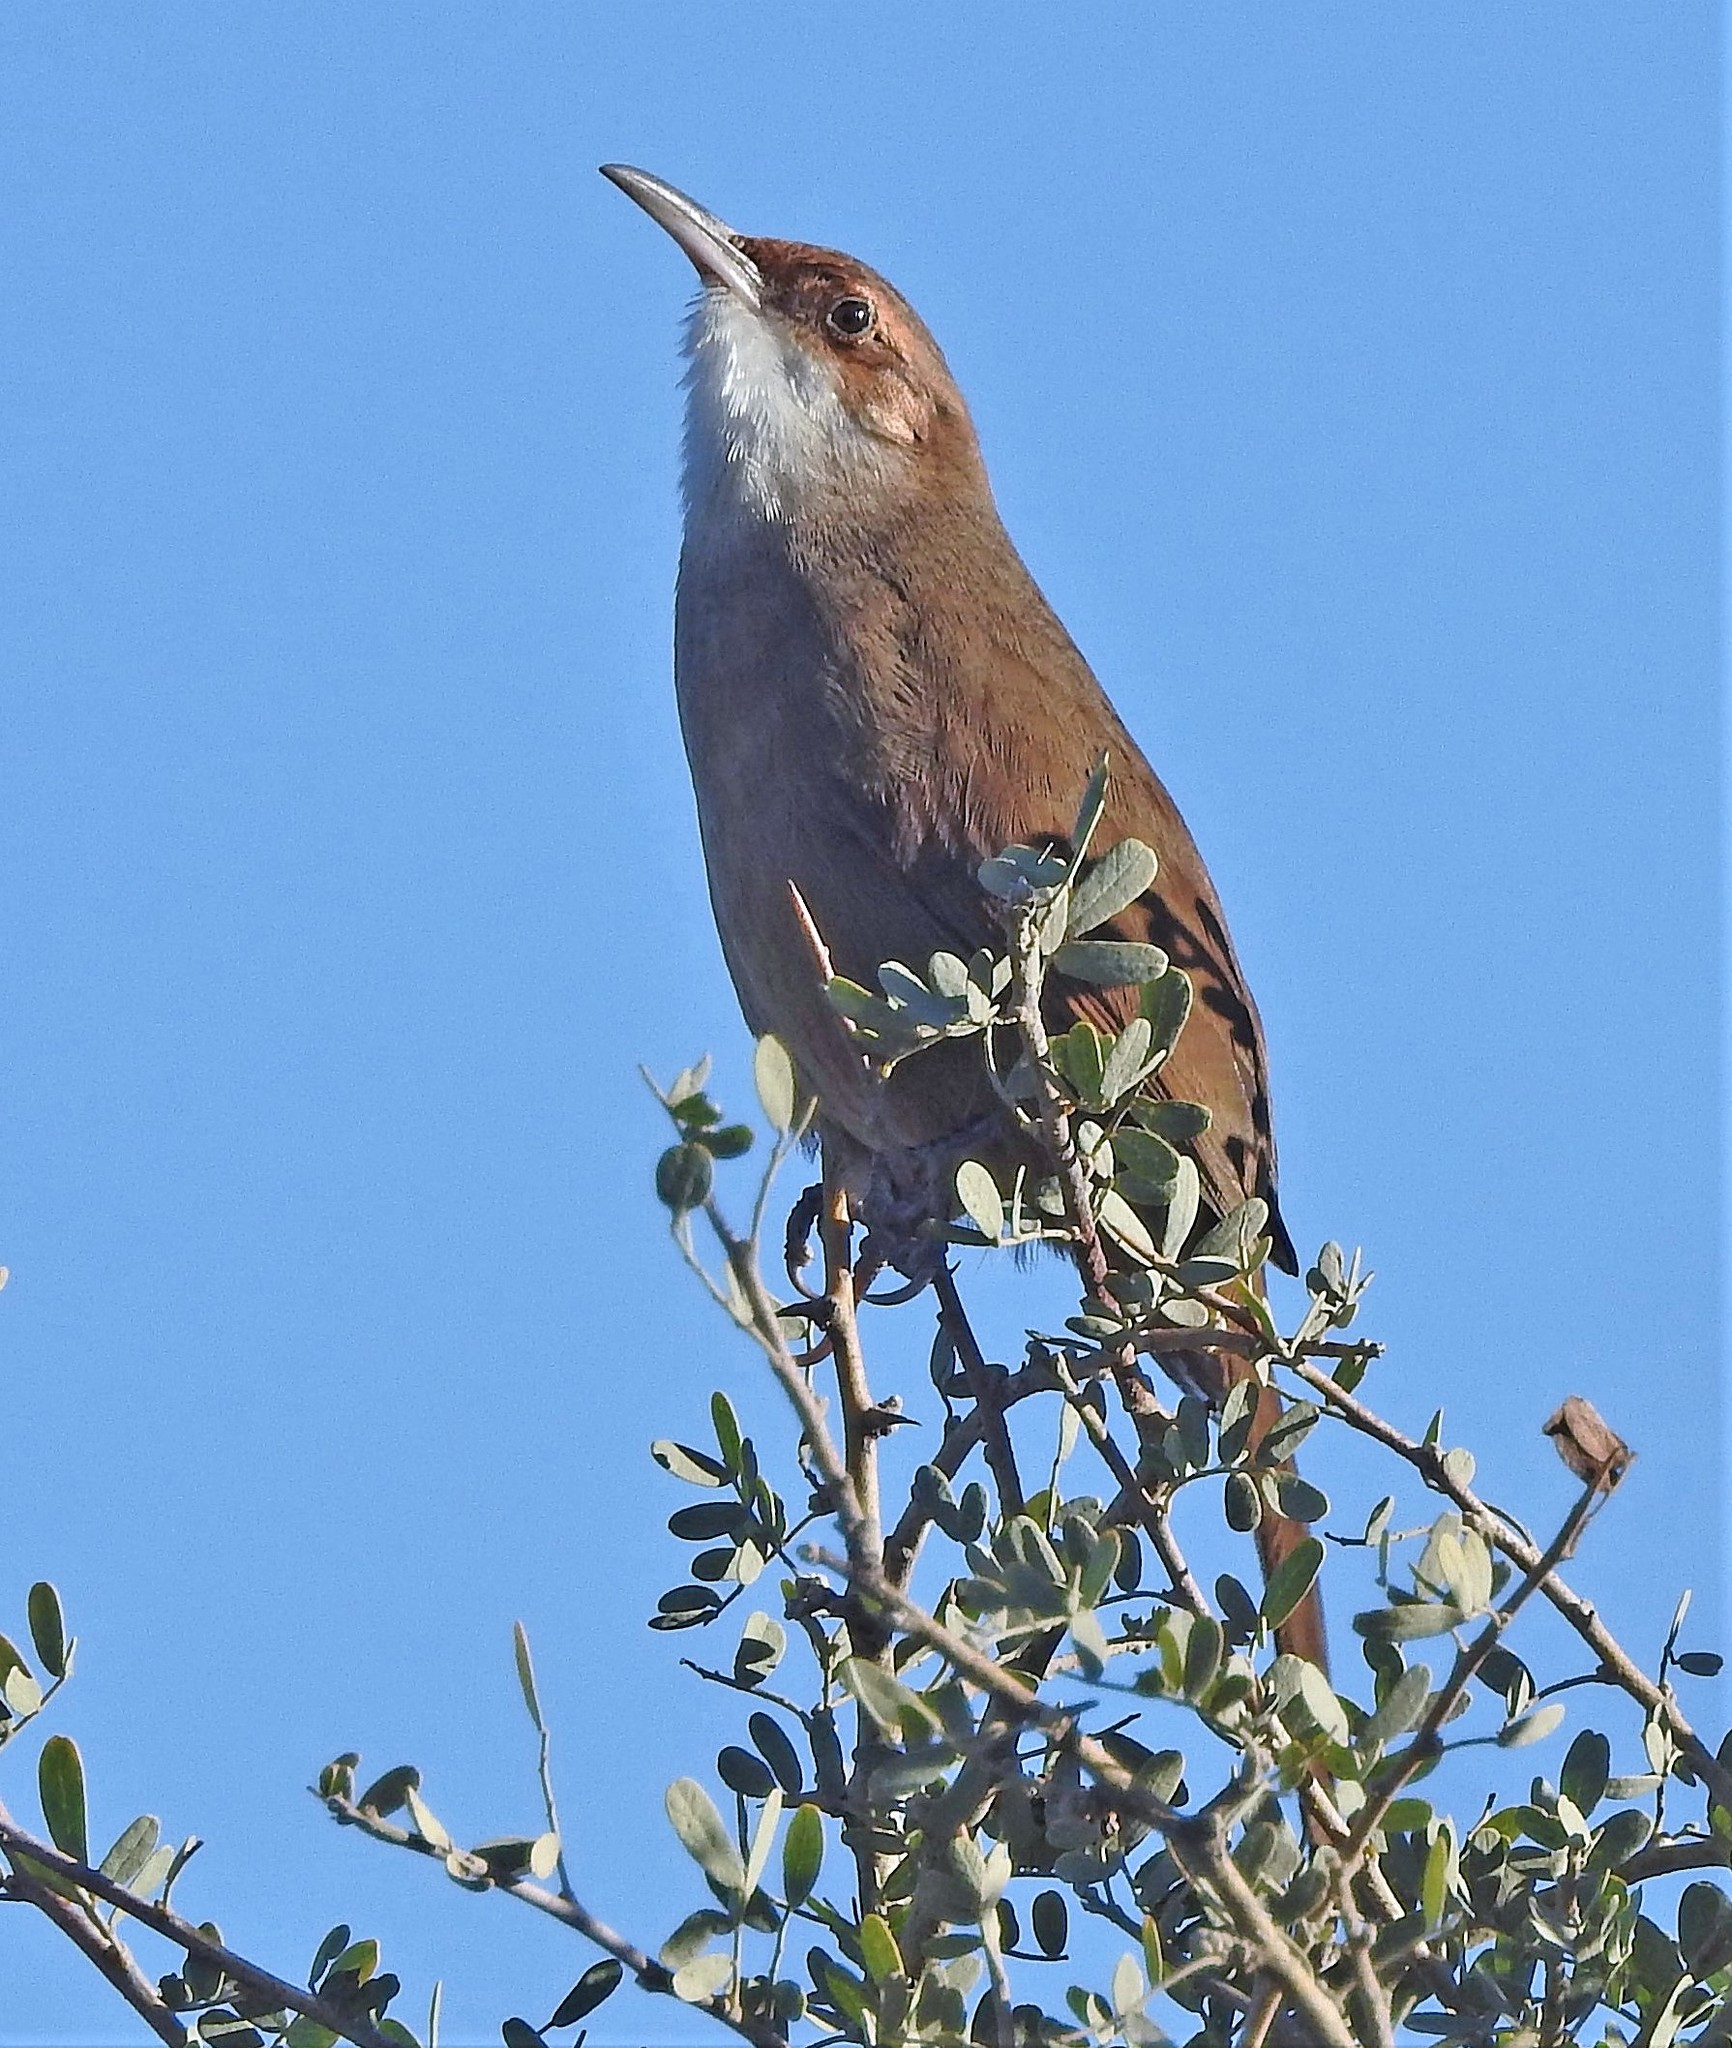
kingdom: Animalia
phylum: Chordata
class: Aves
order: Passeriformes
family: Furnariidae
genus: Upucerthia
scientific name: Upucerthia certhioides
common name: Chaco earthcreeper
